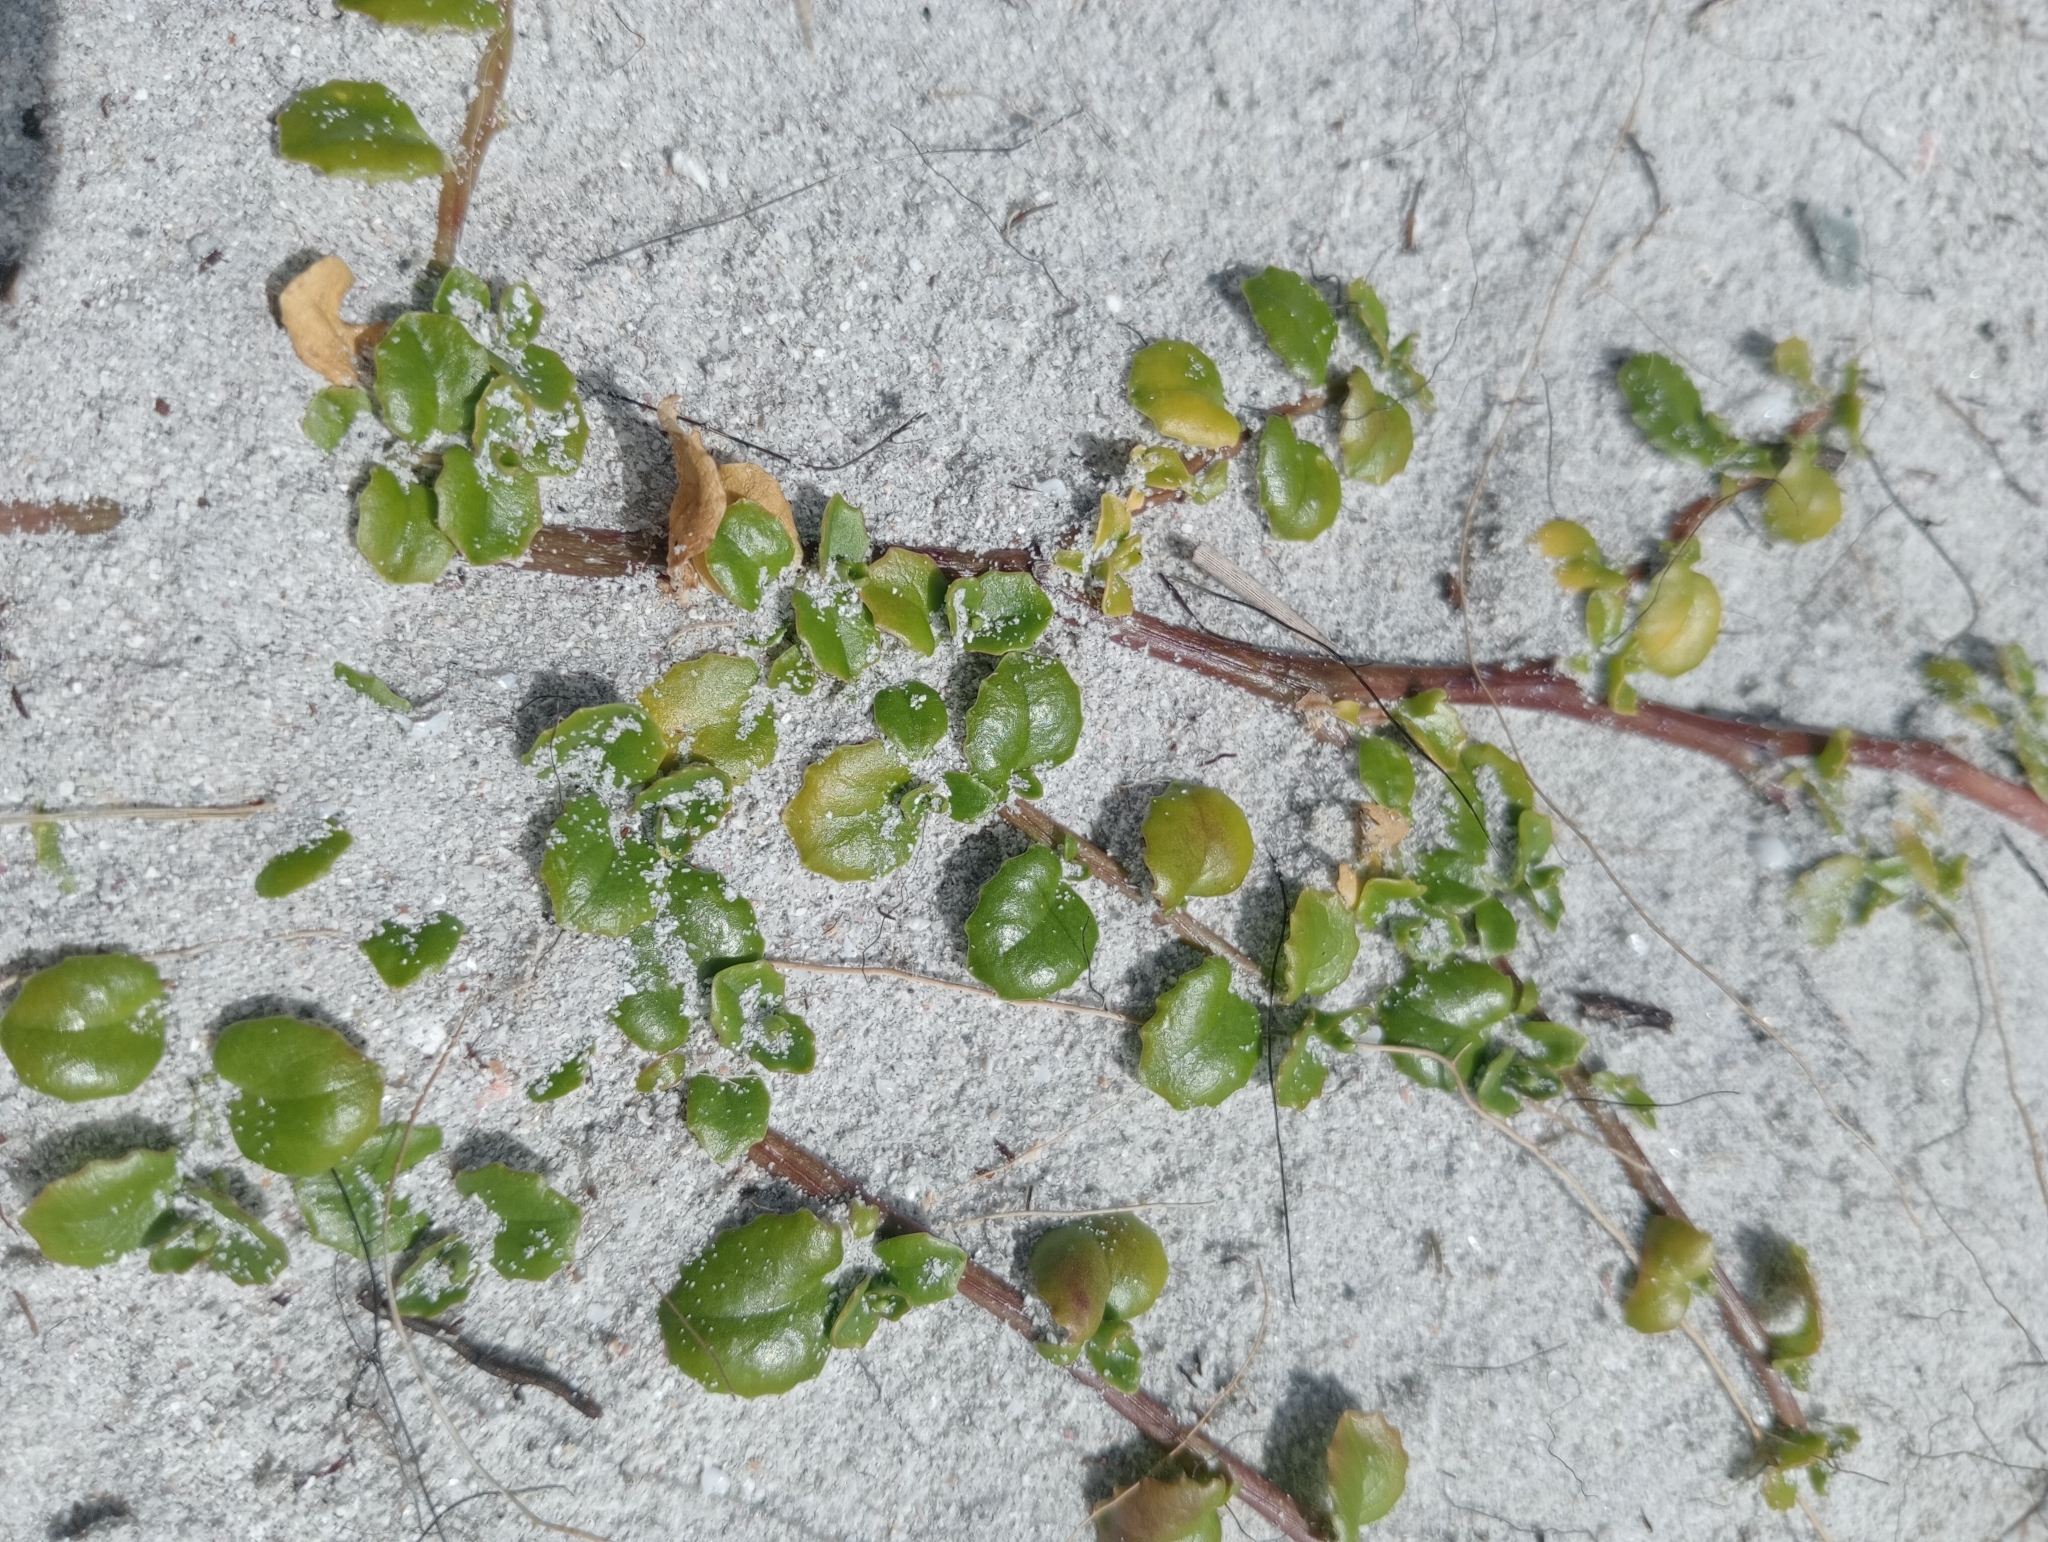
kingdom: Plantae
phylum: Tracheophyta
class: Magnoliopsida
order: Asterales
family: Campanulaceae
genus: Lobelia
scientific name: Lobelia arenaria
